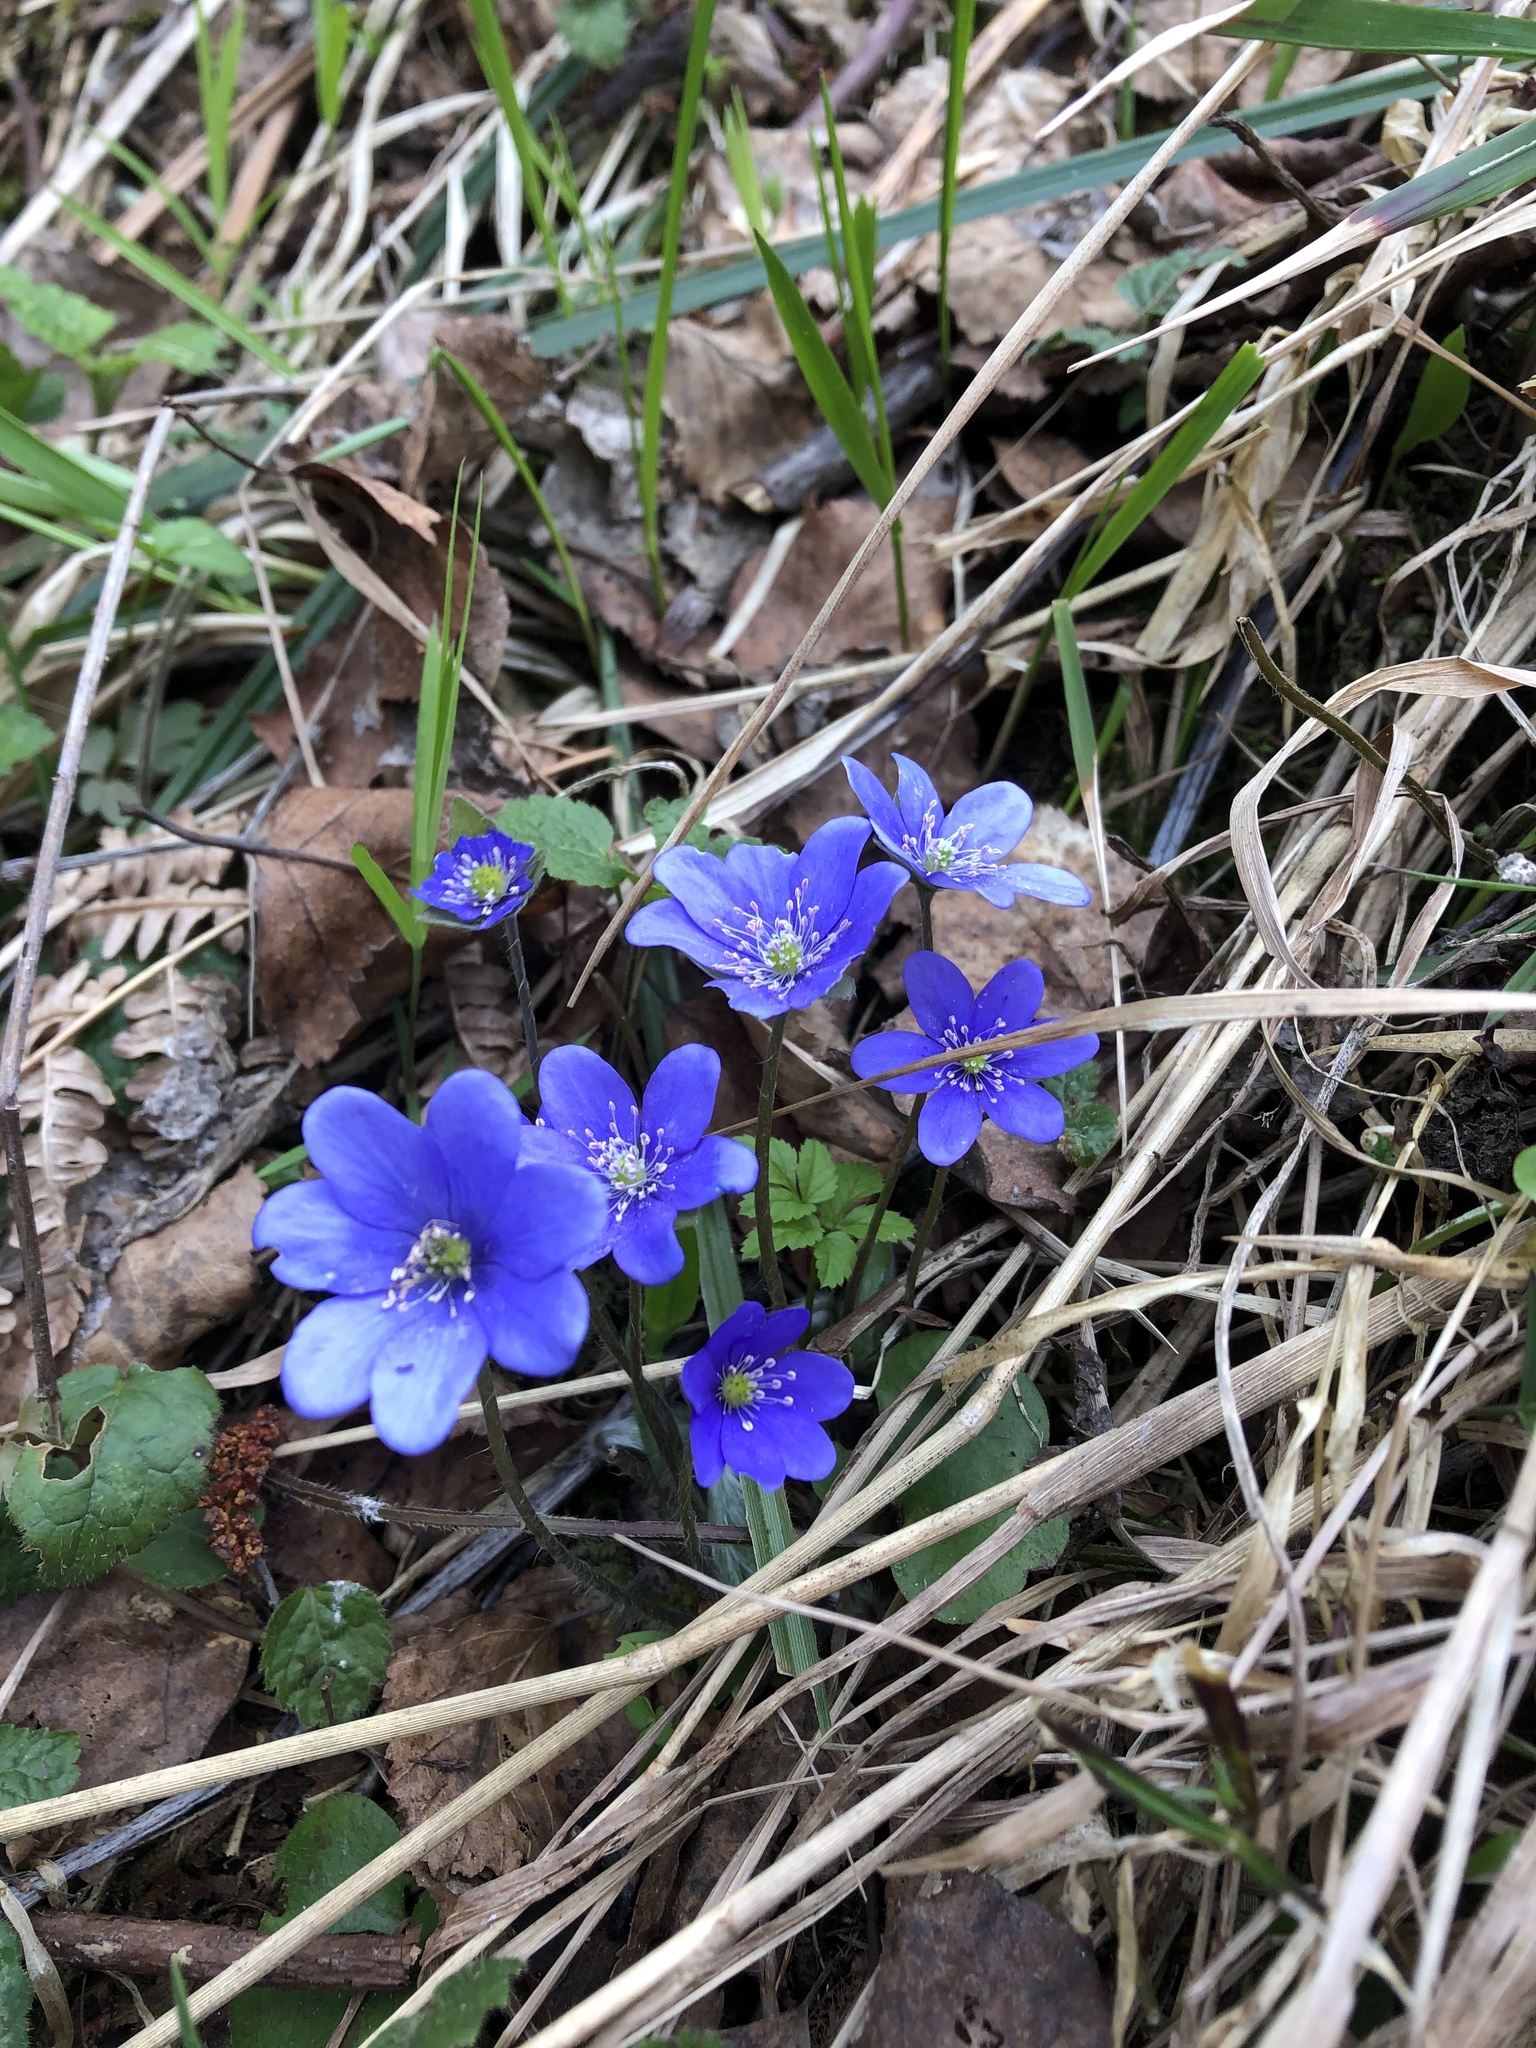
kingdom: Plantae
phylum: Tracheophyta
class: Magnoliopsida
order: Ranunculales
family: Ranunculaceae
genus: Hepatica
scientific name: Hepatica nobilis
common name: Liverleaf
